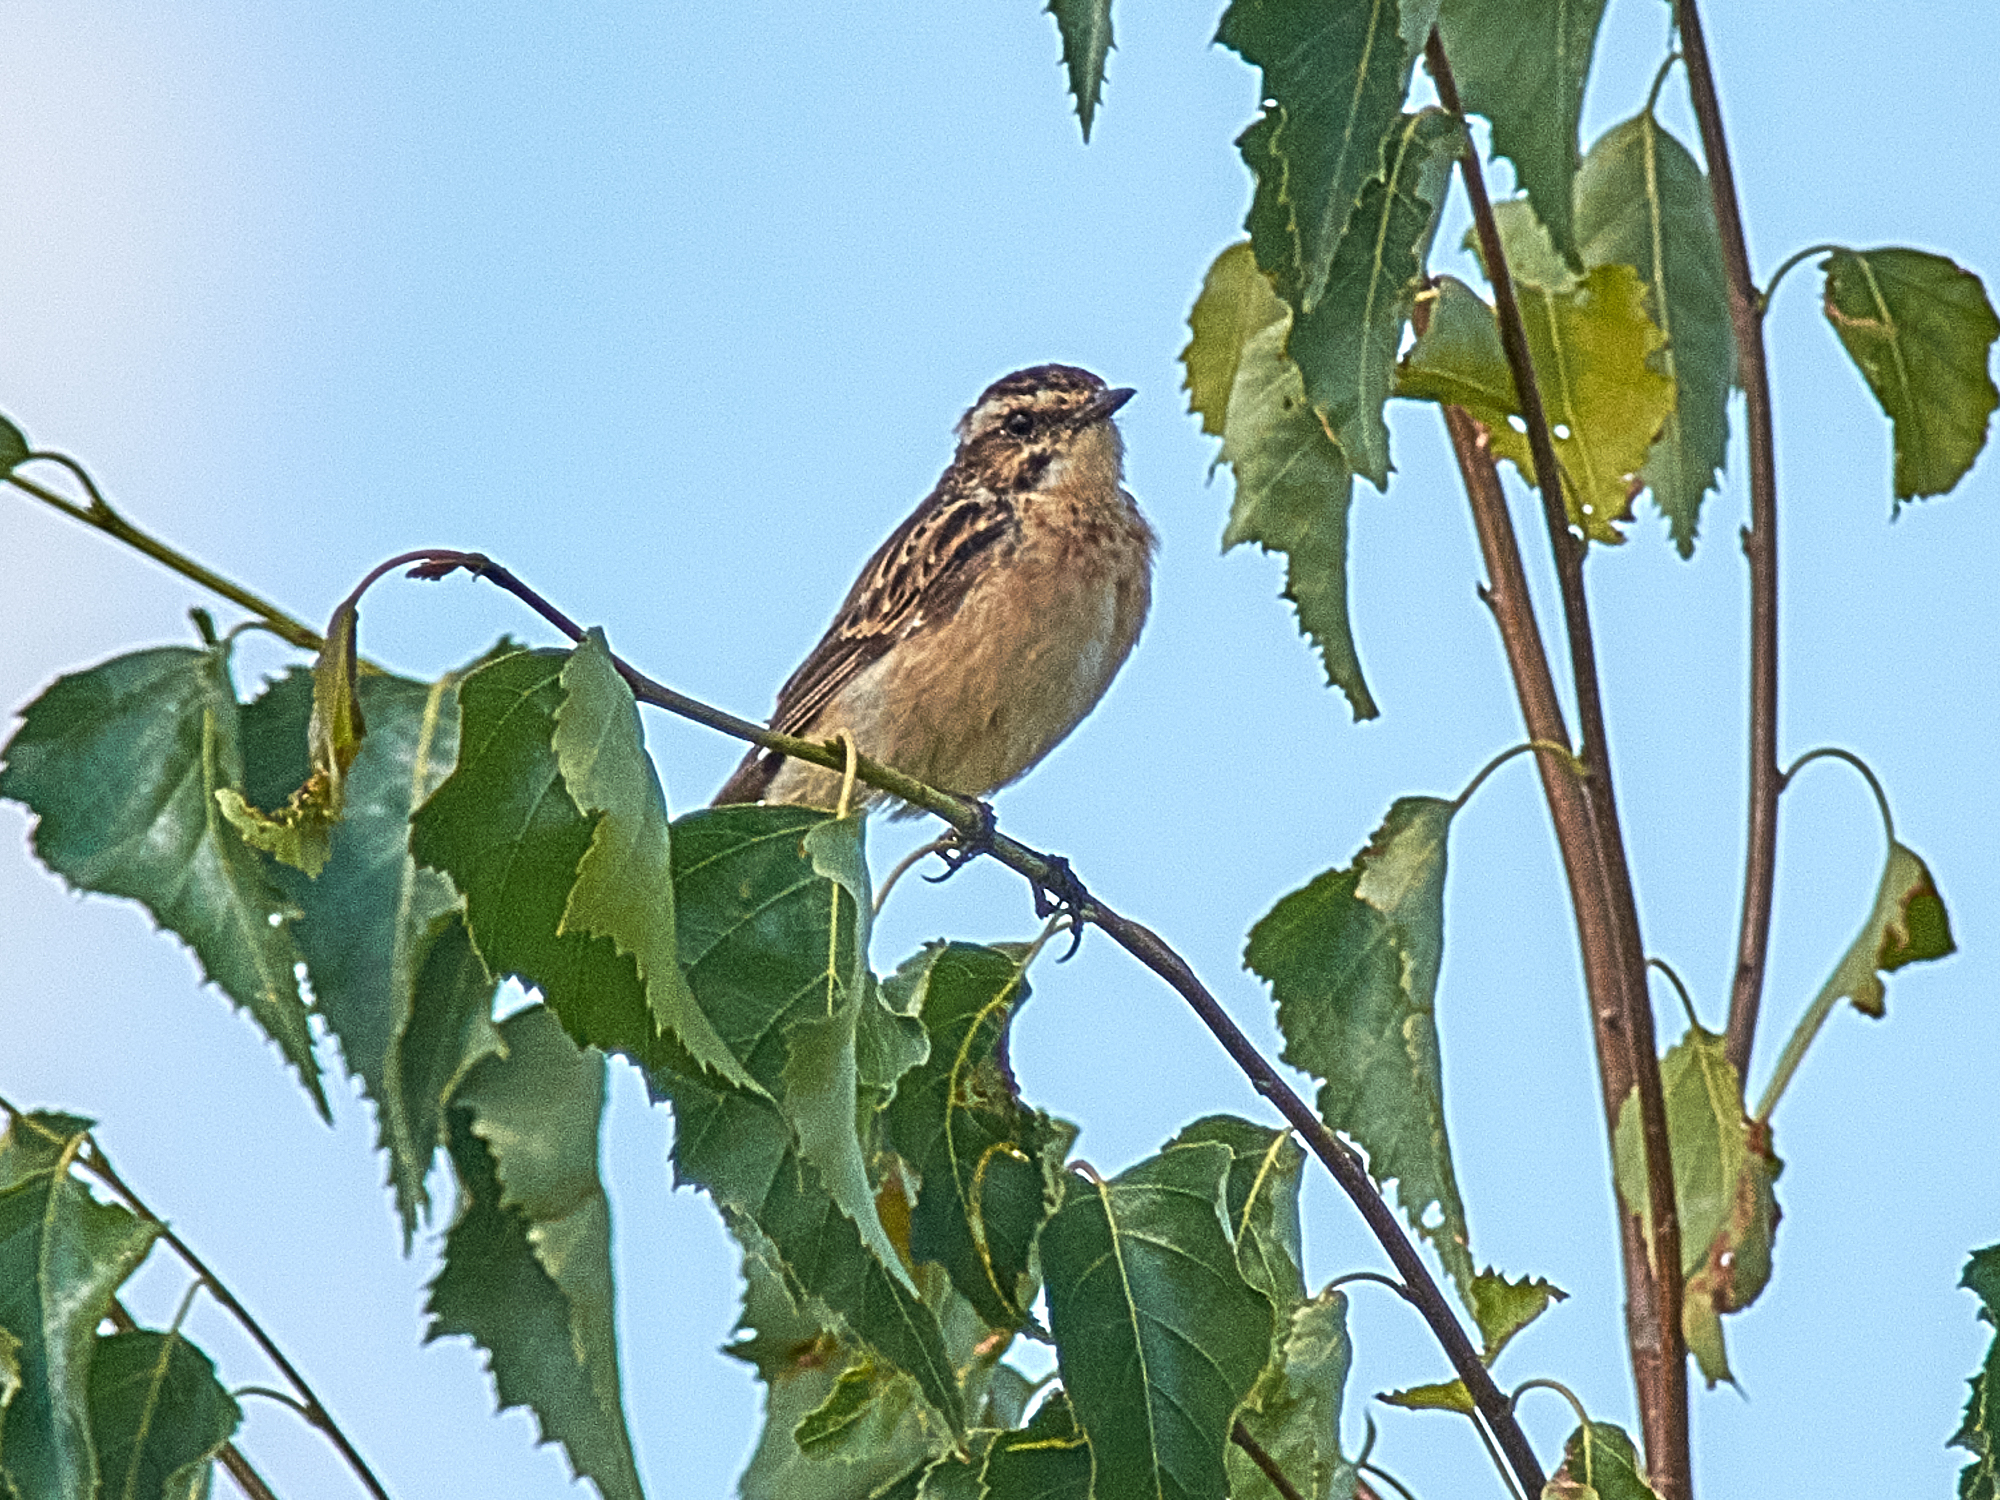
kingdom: Animalia
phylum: Chordata
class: Aves
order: Passeriformes
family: Muscicapidae
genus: Saxicola
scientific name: Saxicola rubetra
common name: Whinchat
